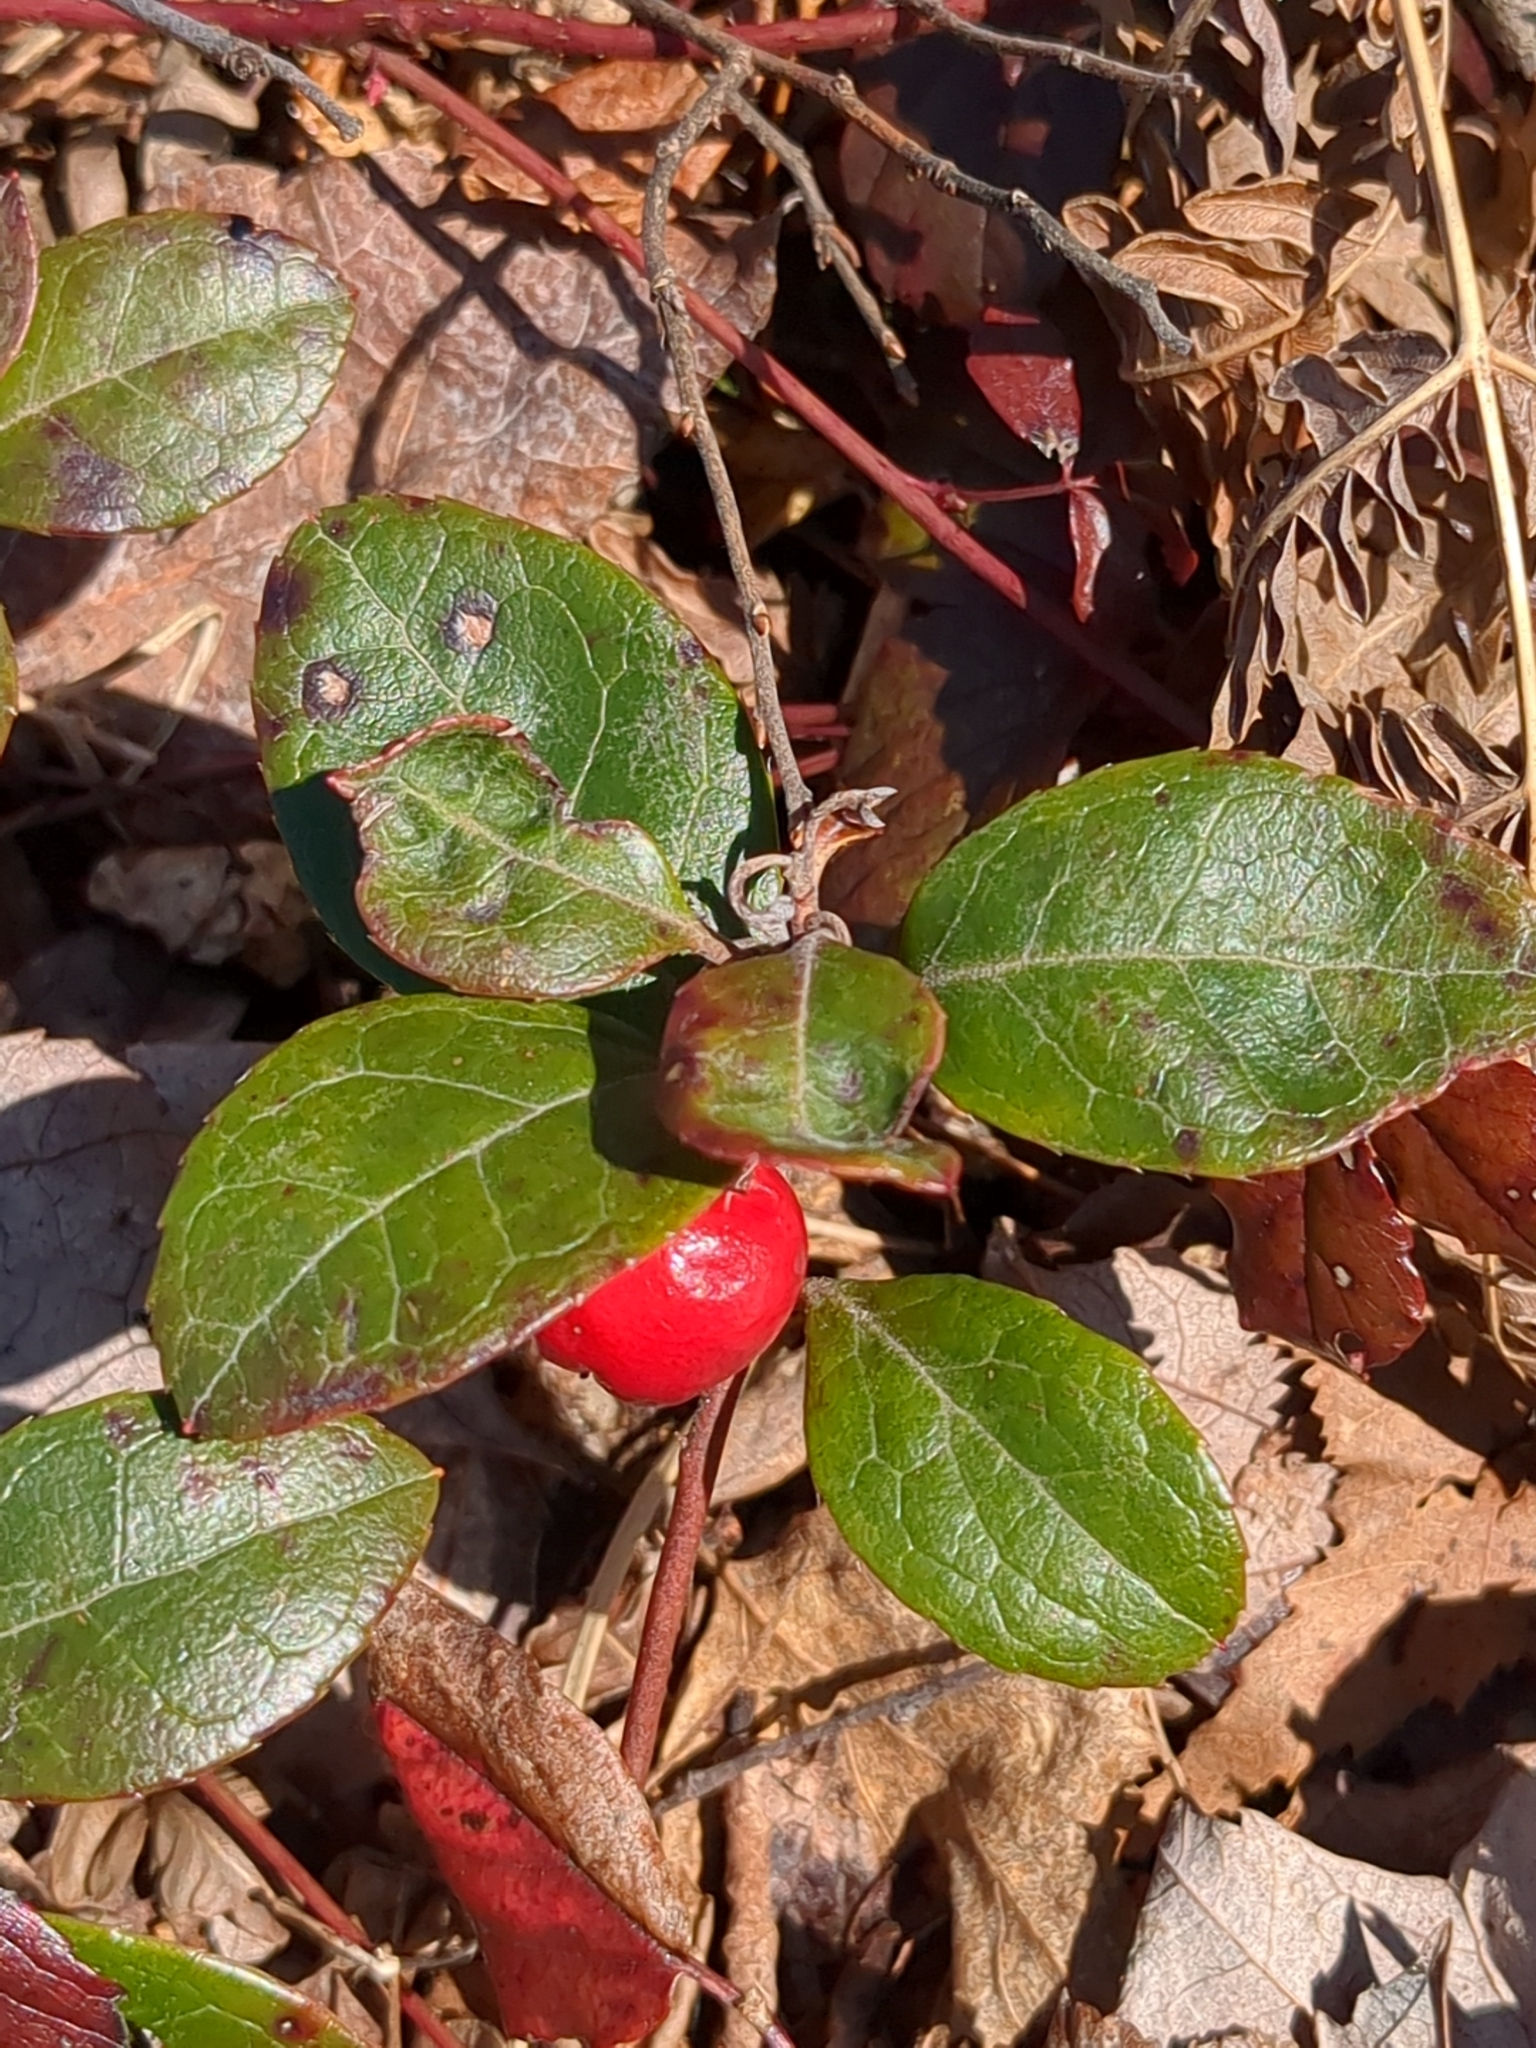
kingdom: Plantae
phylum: Tracheophyta
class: Magnoliopsida
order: Ericales
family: Ericaceae
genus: Gaultheria
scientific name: Gaultheria procumbens
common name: Checkerberry
